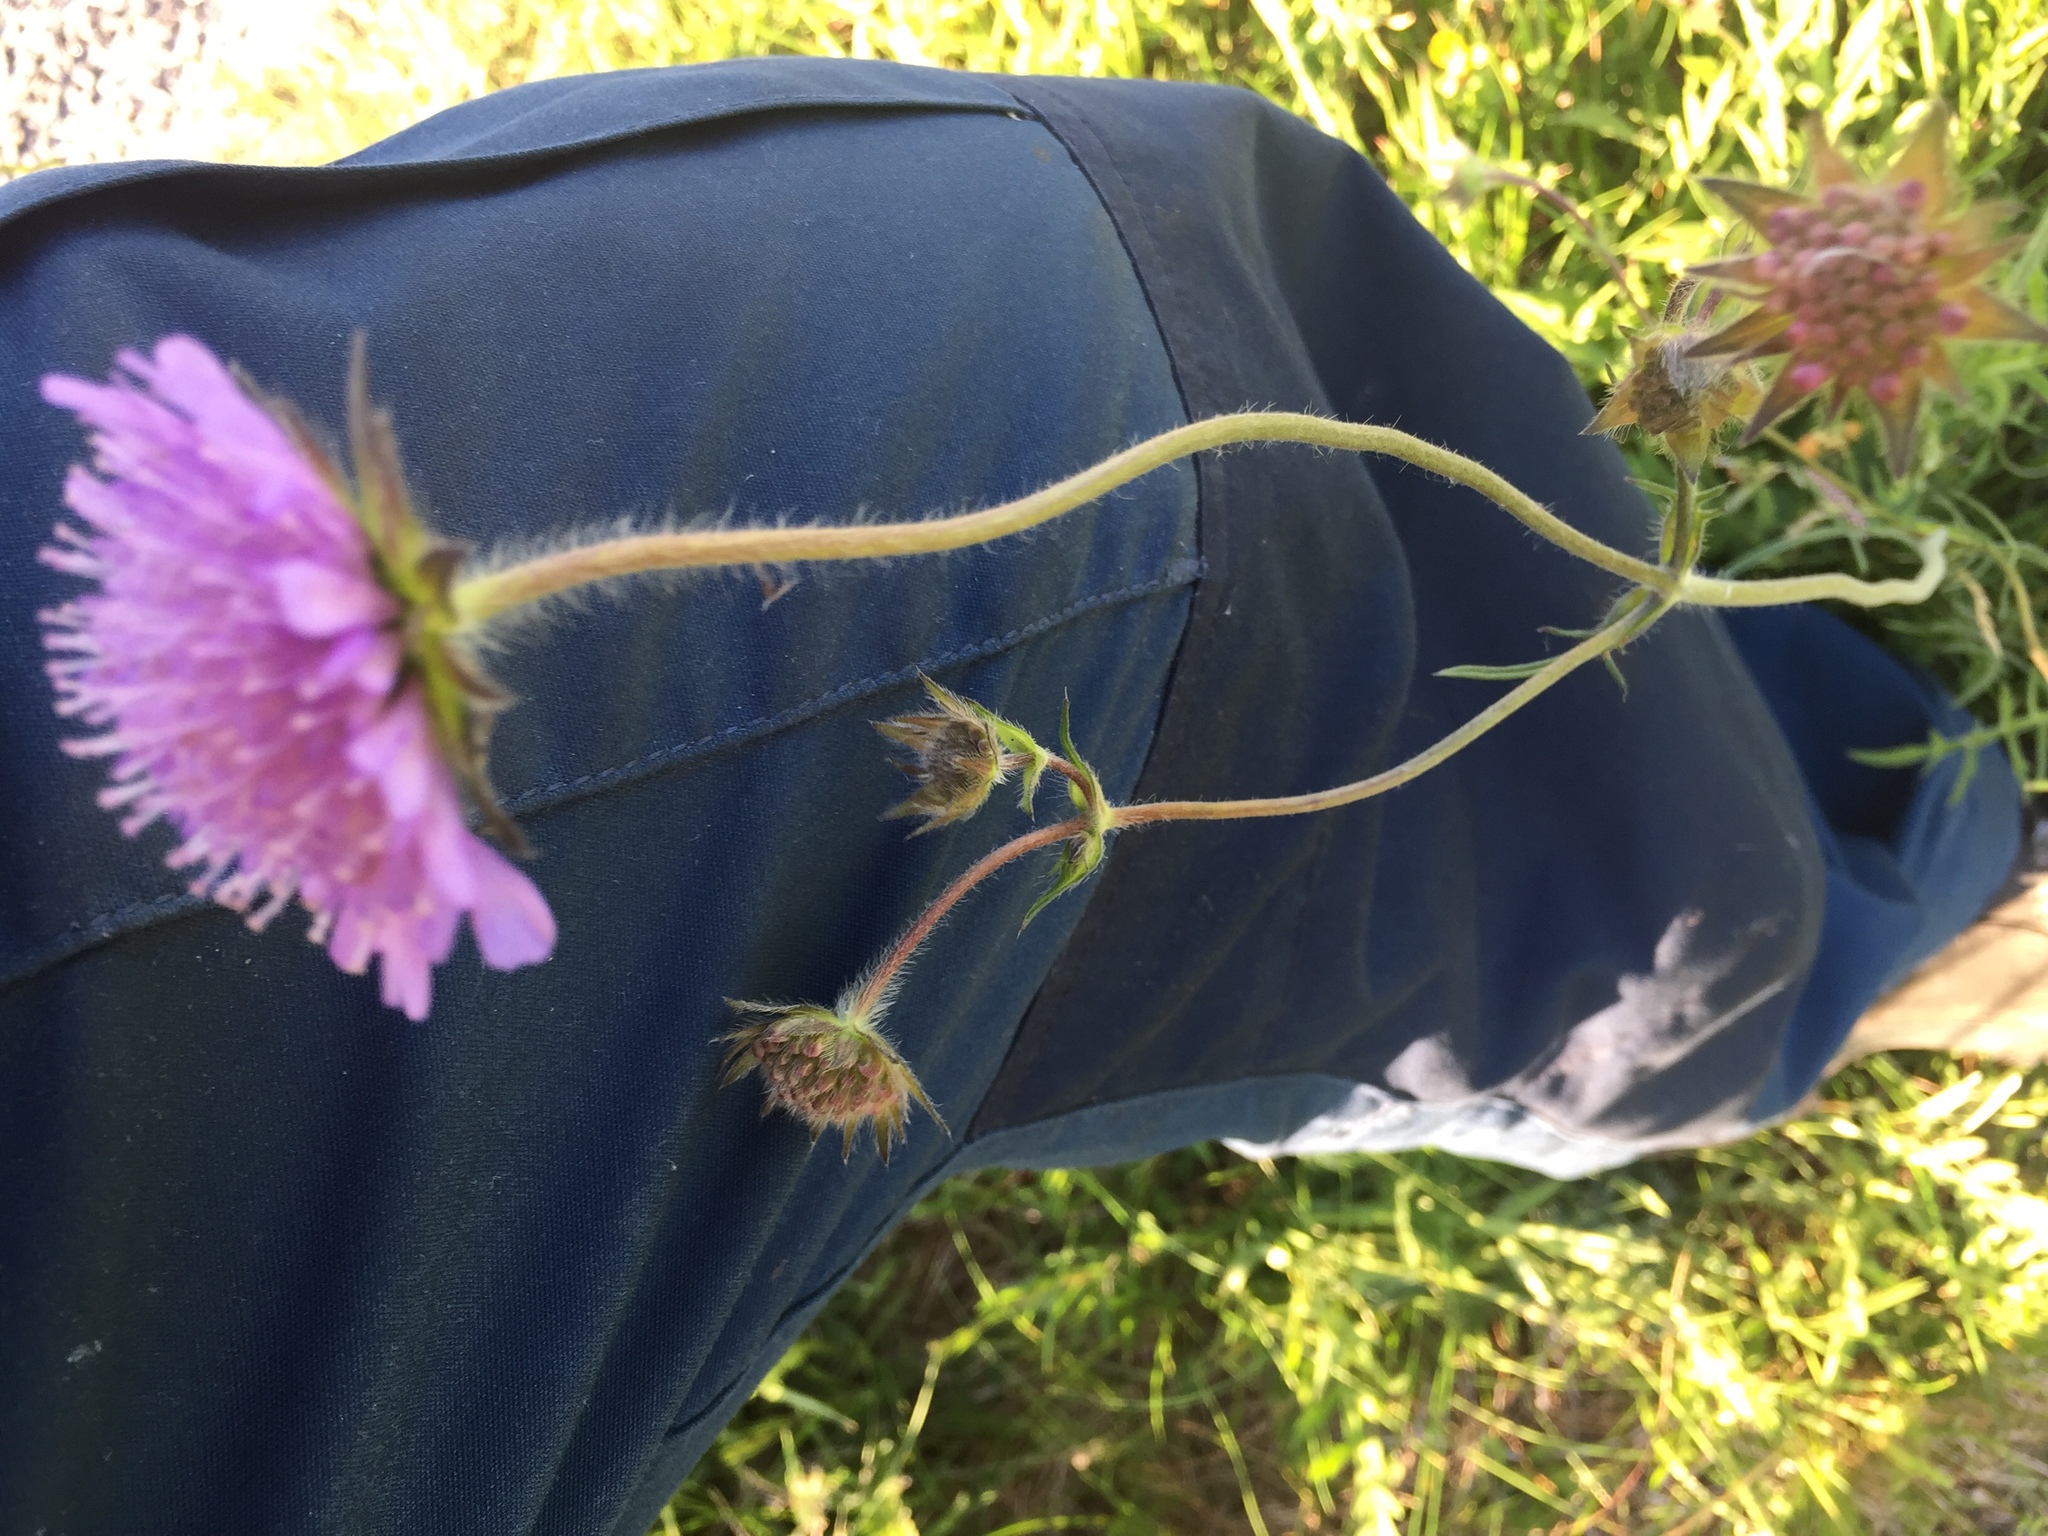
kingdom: Plantae
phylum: Tracheophyta
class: Magnoliopsida
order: Dipsacales
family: Caprifoliaceae
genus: Knautia
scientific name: Knautia arvensis
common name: Field scabiosa
